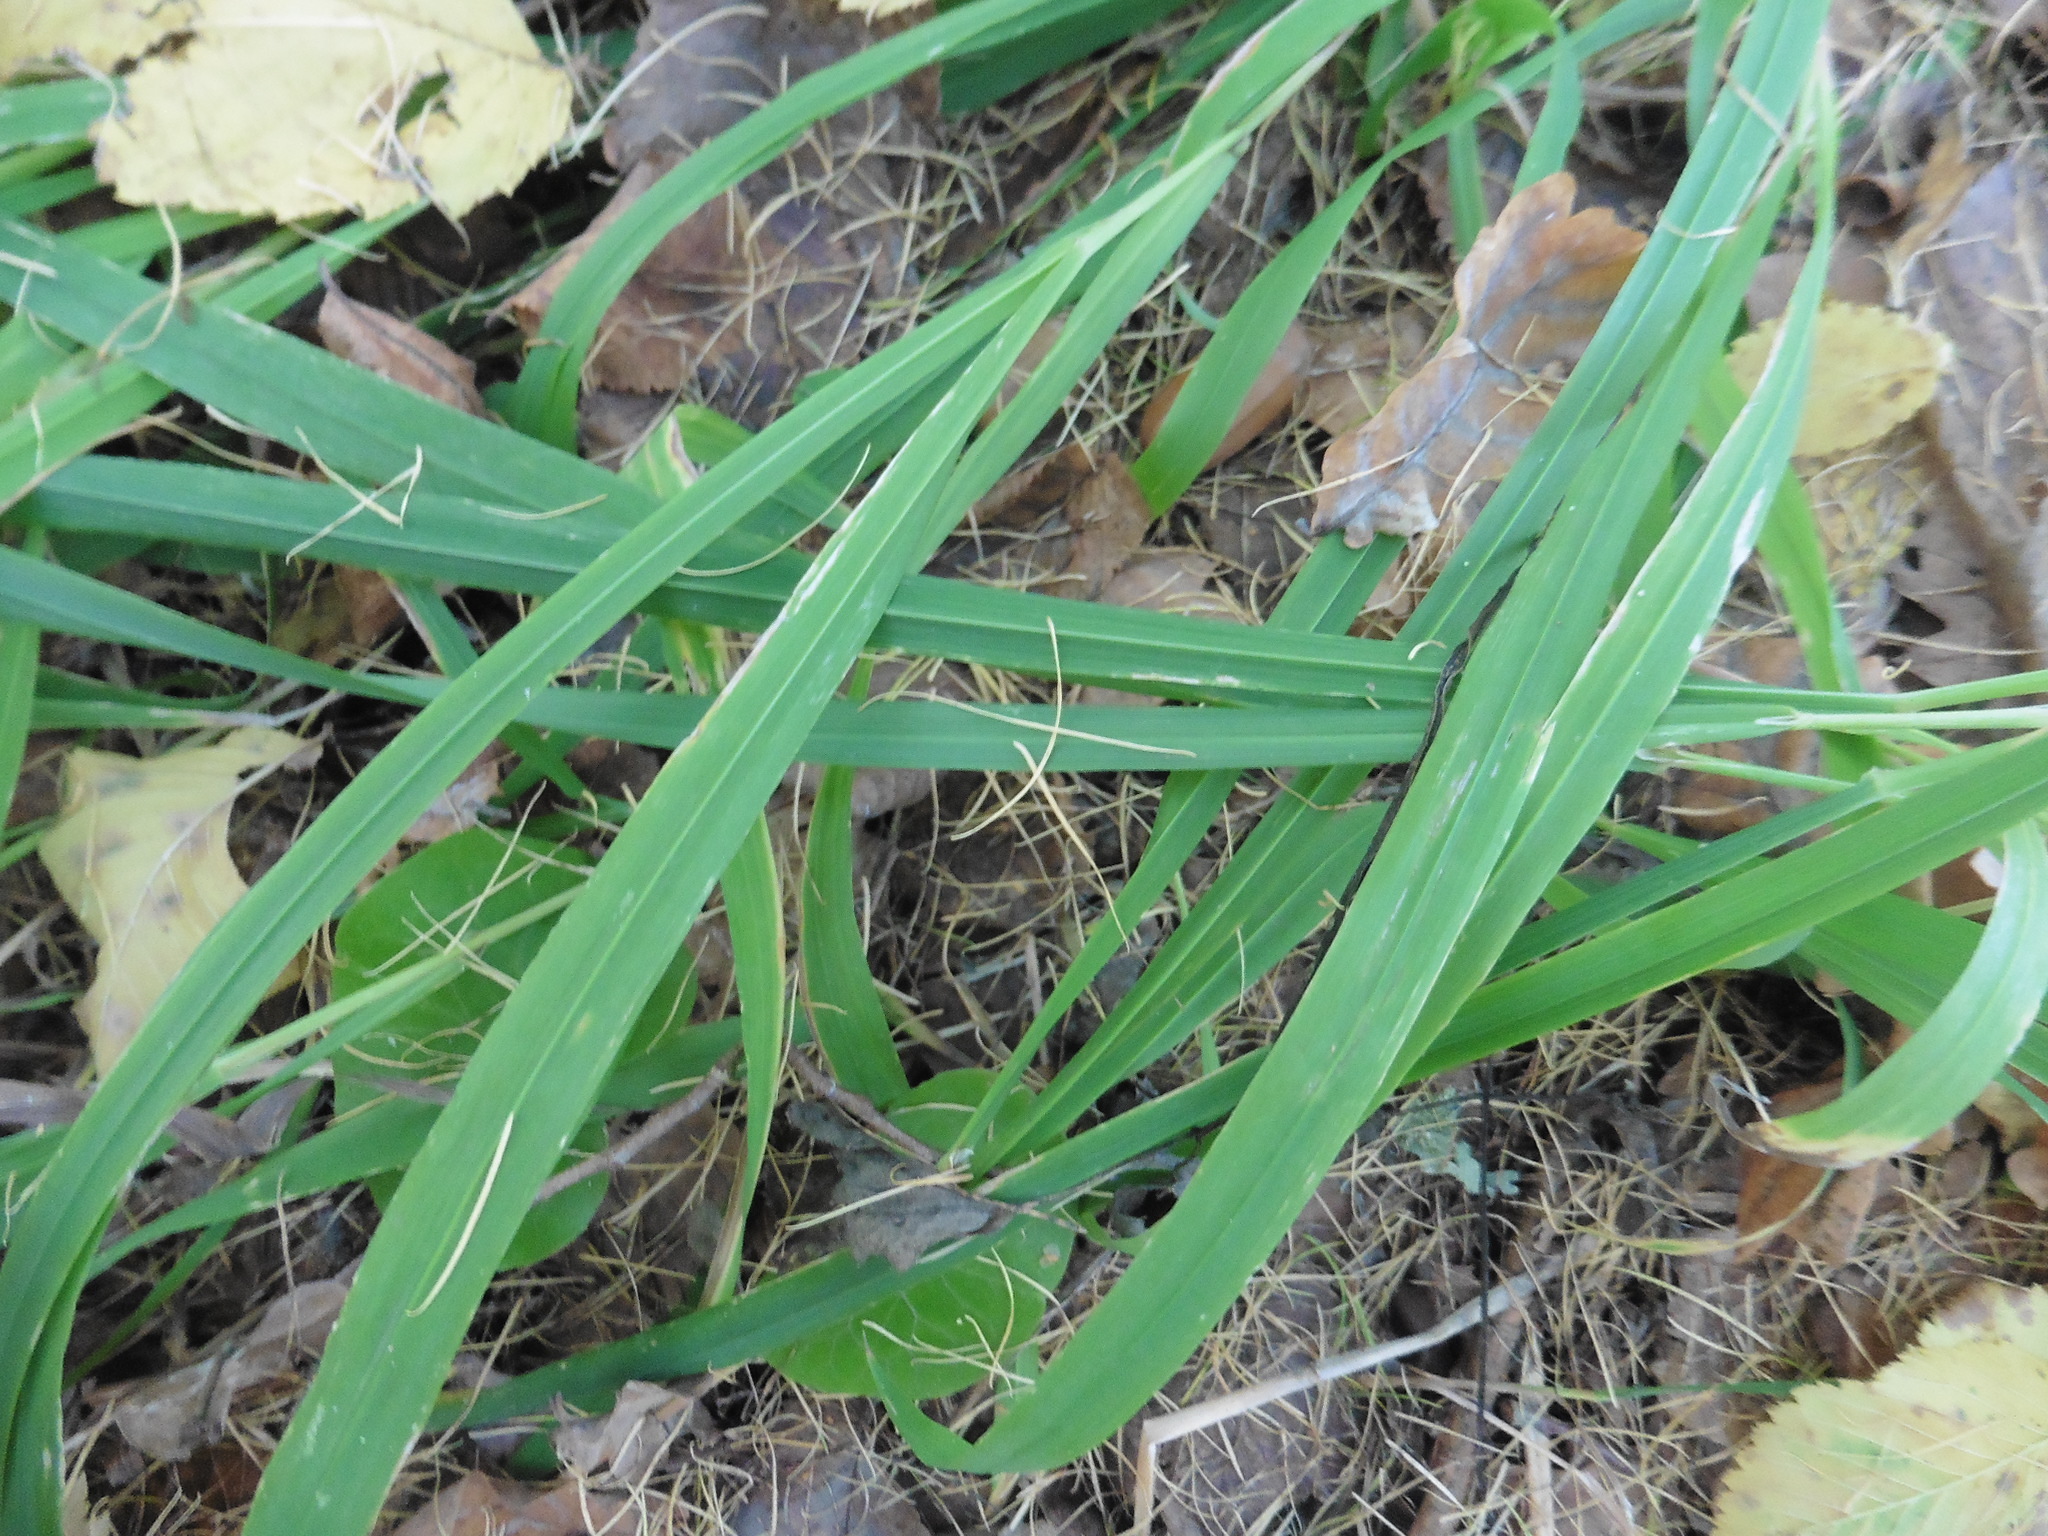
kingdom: Plantae
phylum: Tracheophyta
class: Liliopsida
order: Poales
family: Poaceae
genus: Milium
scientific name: Milium effusum
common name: Wood millet
